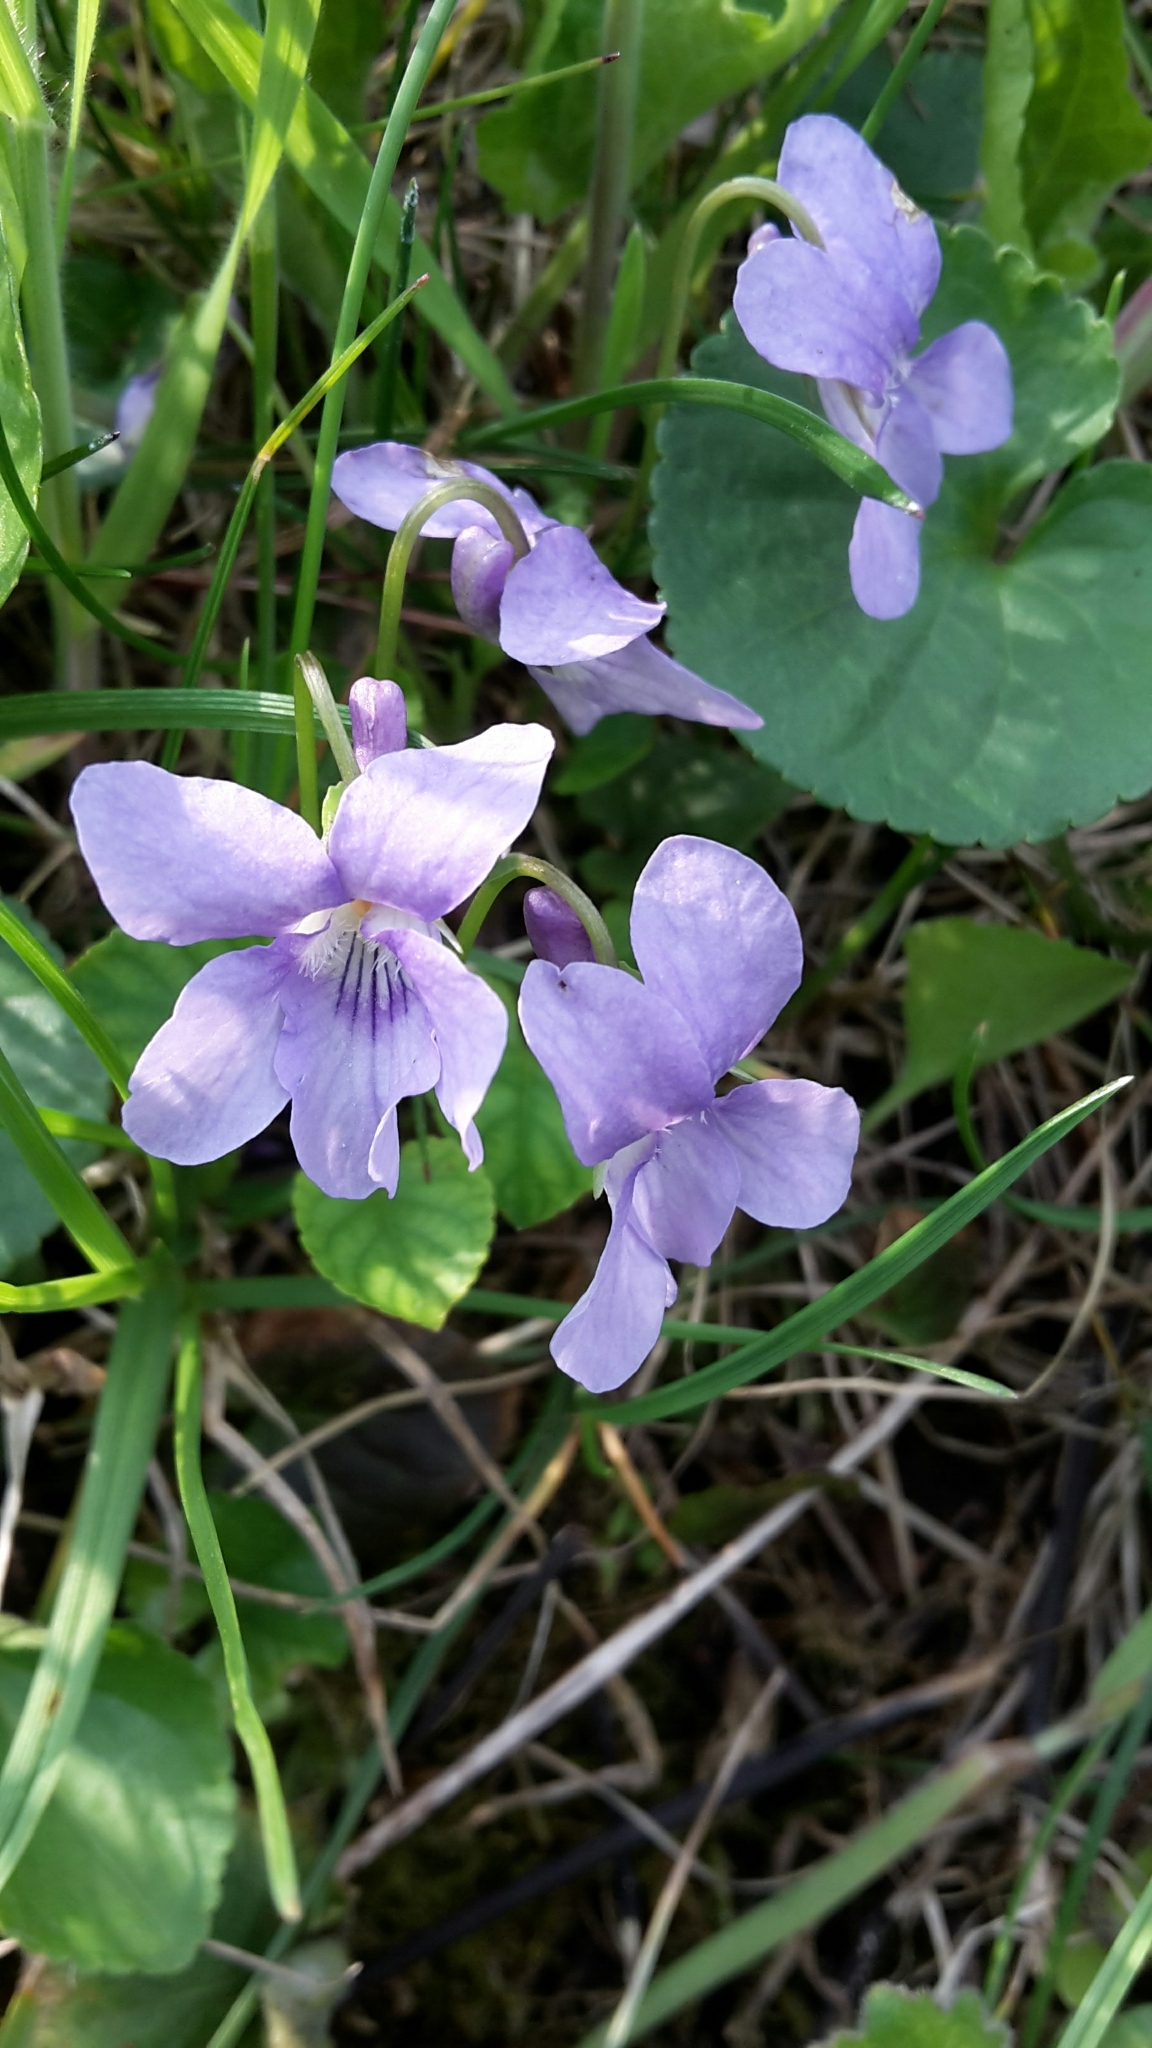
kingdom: Plantae
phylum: Tracheophyta
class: Magnoliopsida
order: Malpighiales
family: Violaceae
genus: Viola
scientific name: Viola reichenbachiana
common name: Early dog-violet
